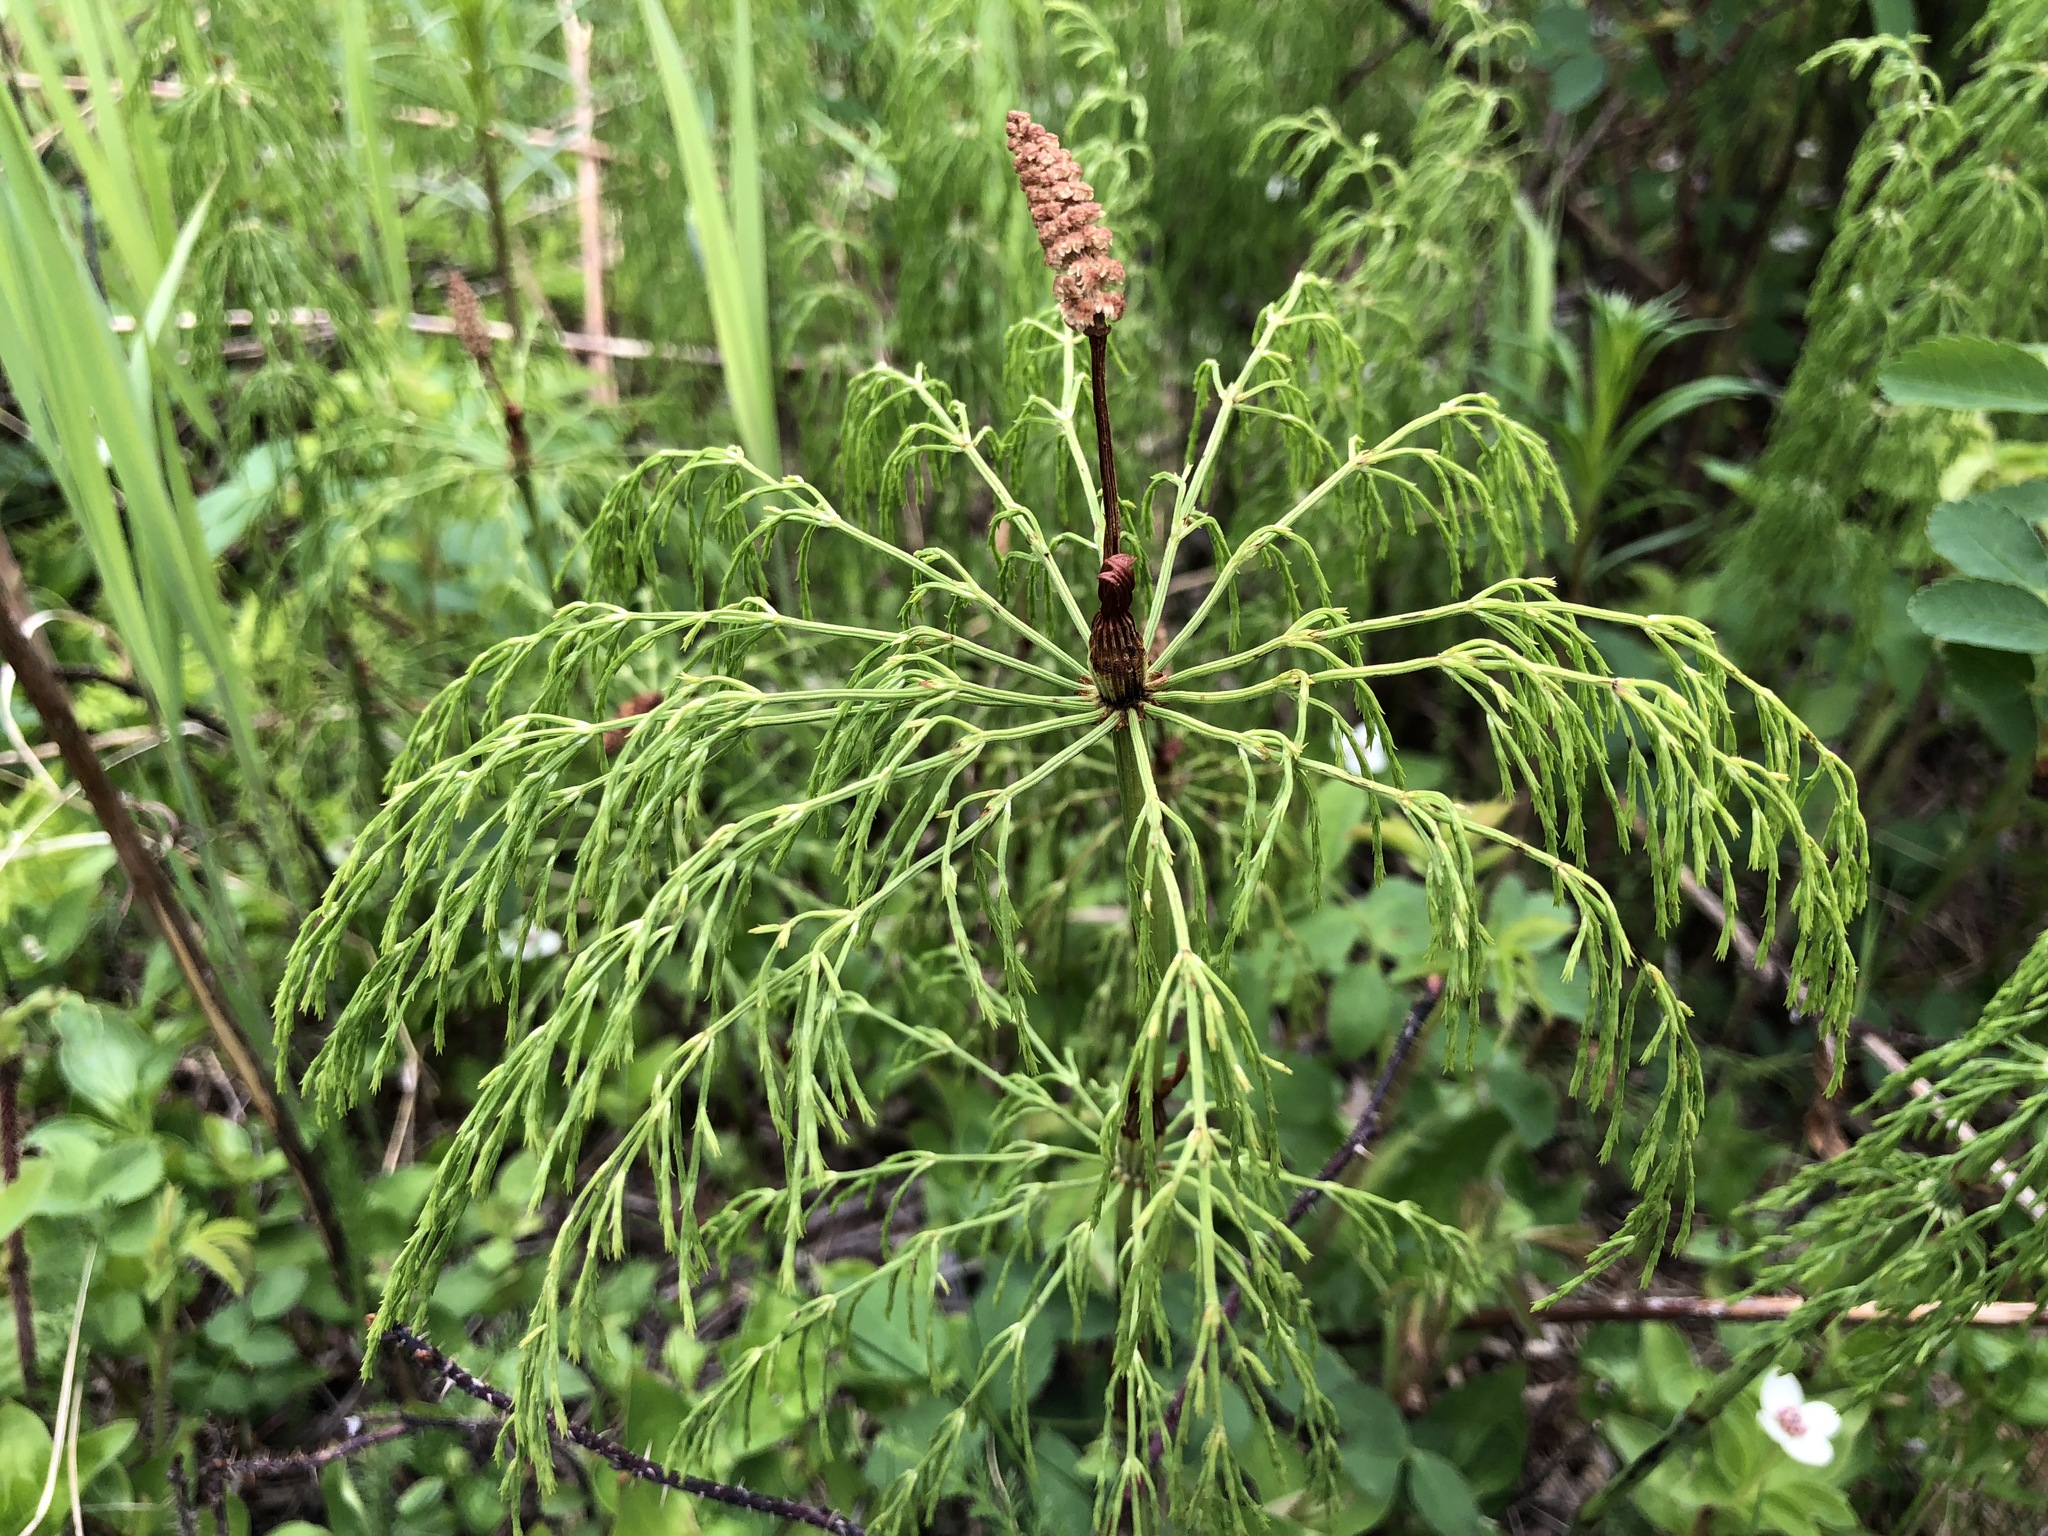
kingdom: Plantae
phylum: Tracheophyta
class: Polypodiopsida
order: Equisetales
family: Equisetaceae
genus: Equisetum
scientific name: Equisetum sylvaticum
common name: Wood horsetail
